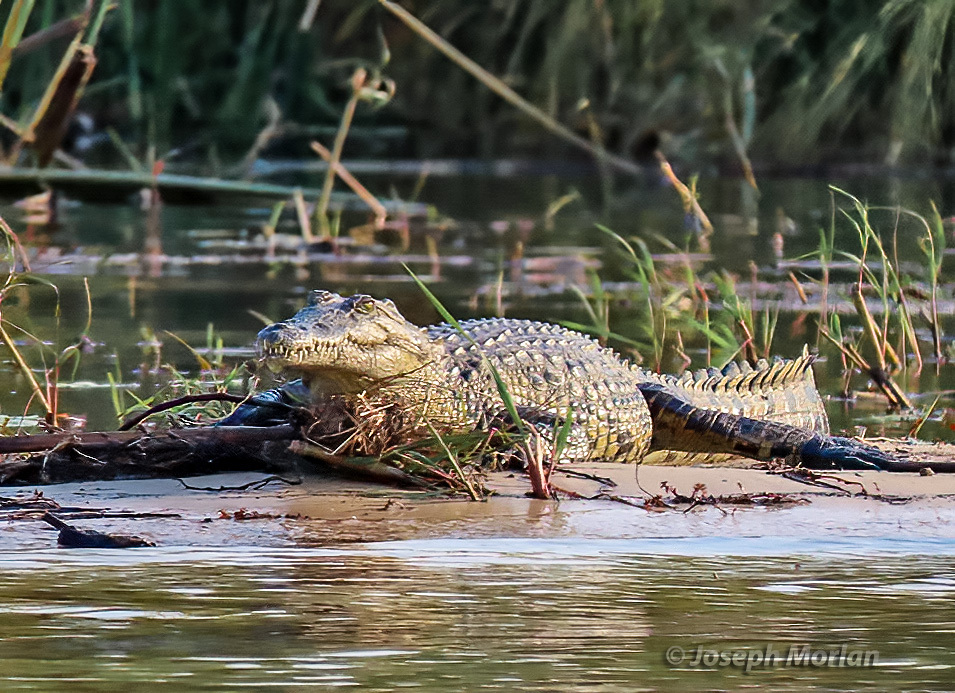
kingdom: Animalia
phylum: Chordata
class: Crocodylia
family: Crocodylidae
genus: Crocodylus
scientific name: Crocodylus niloticus
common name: Nile crocodile
